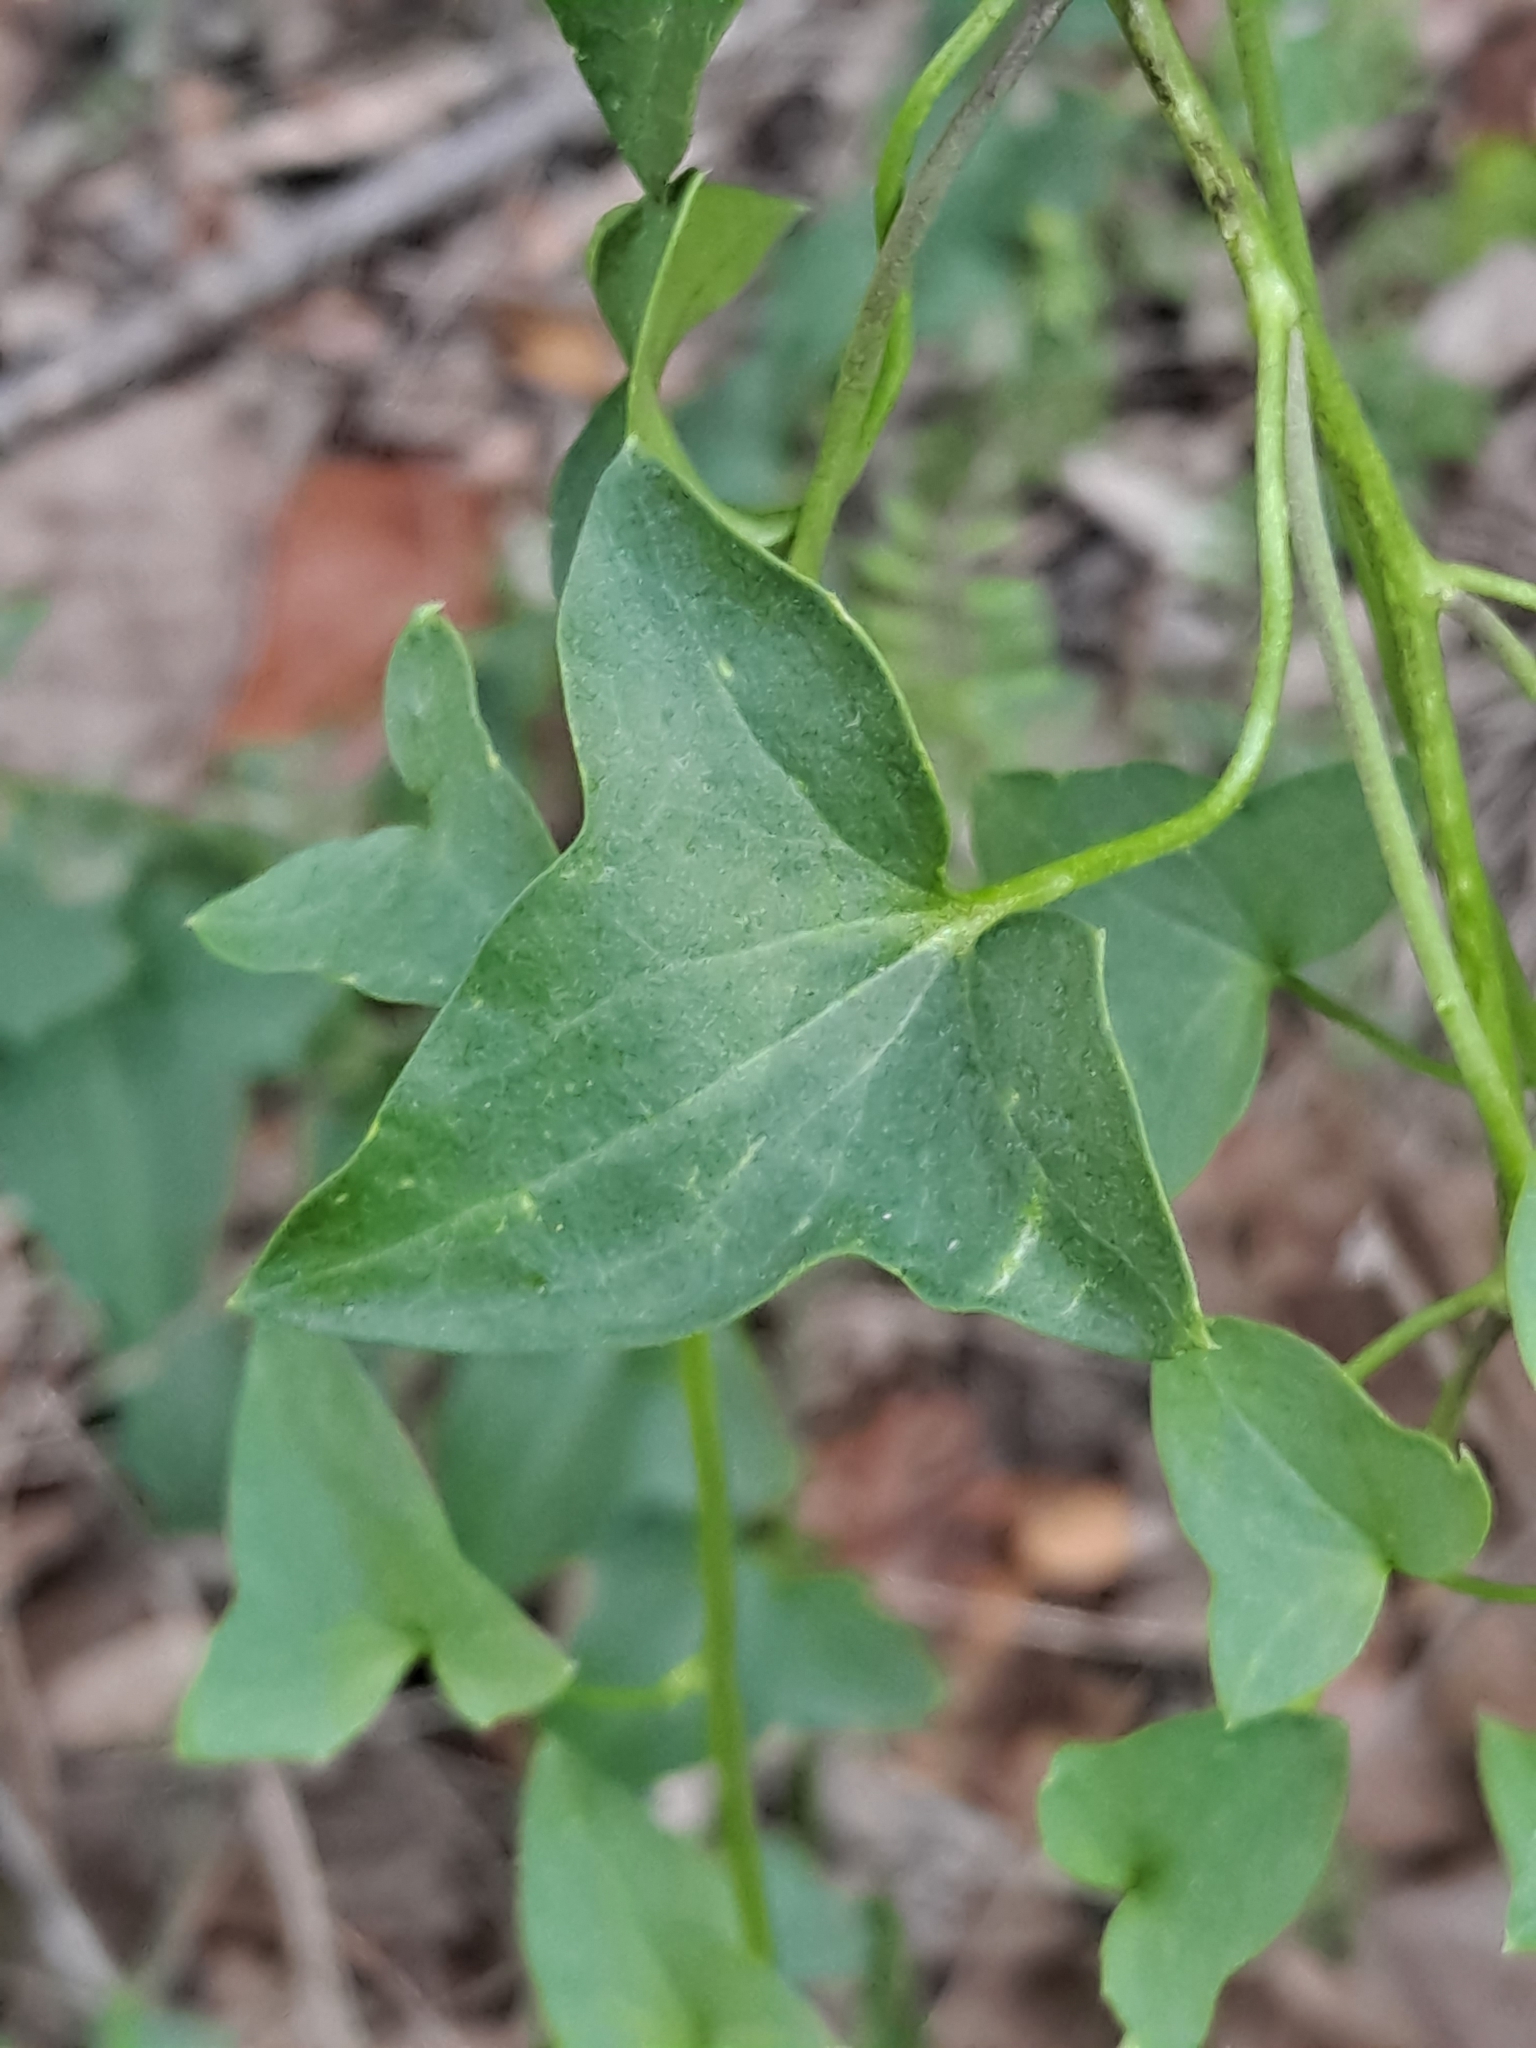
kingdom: Plantae
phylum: Tracheophyta
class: Magnoliopsida
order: Lamiales
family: Plantaginaceae
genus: Maurandella
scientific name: Maurandella antirrhiniflora
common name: Violet twining-snapdragon
